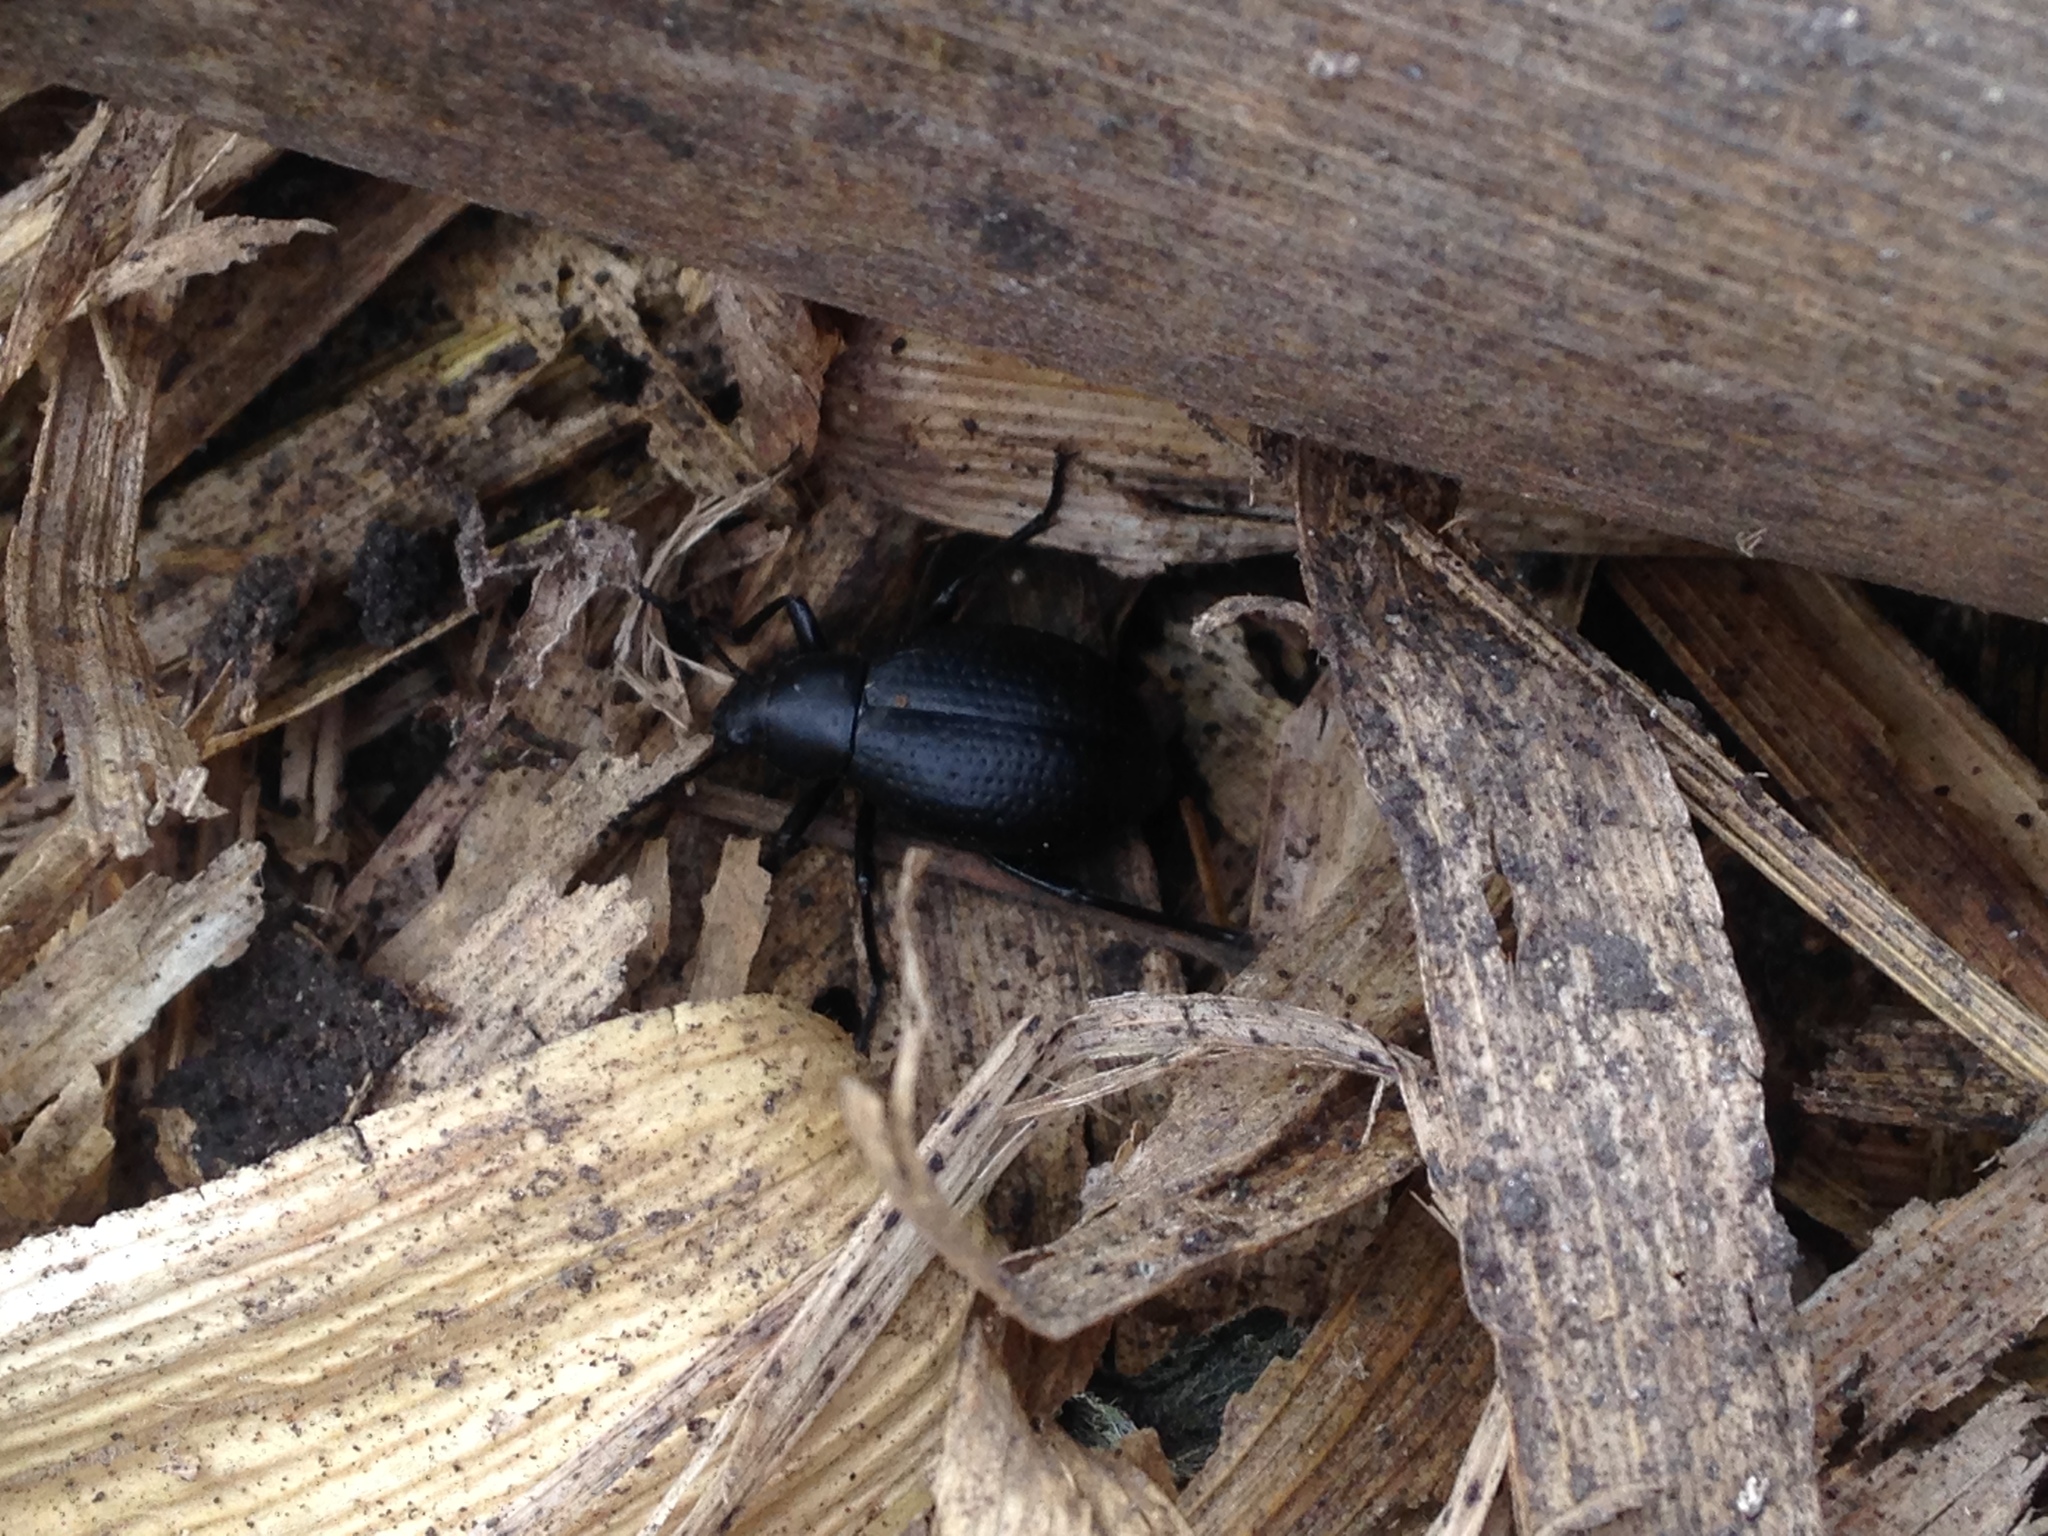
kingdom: Animalia
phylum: Arthropoda
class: Insecta
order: Coleoptera
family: Tenebrionidae
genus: Eleodes
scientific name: Eleodes goryi
